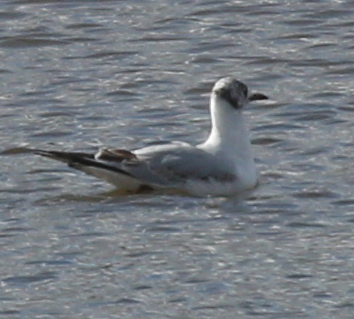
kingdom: Animalia
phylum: Chordata
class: Aves
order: Charadriiformes
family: Laridae
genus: Chroicocephalus
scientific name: Chroicocephalus ridibundus
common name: Black-headed gull
